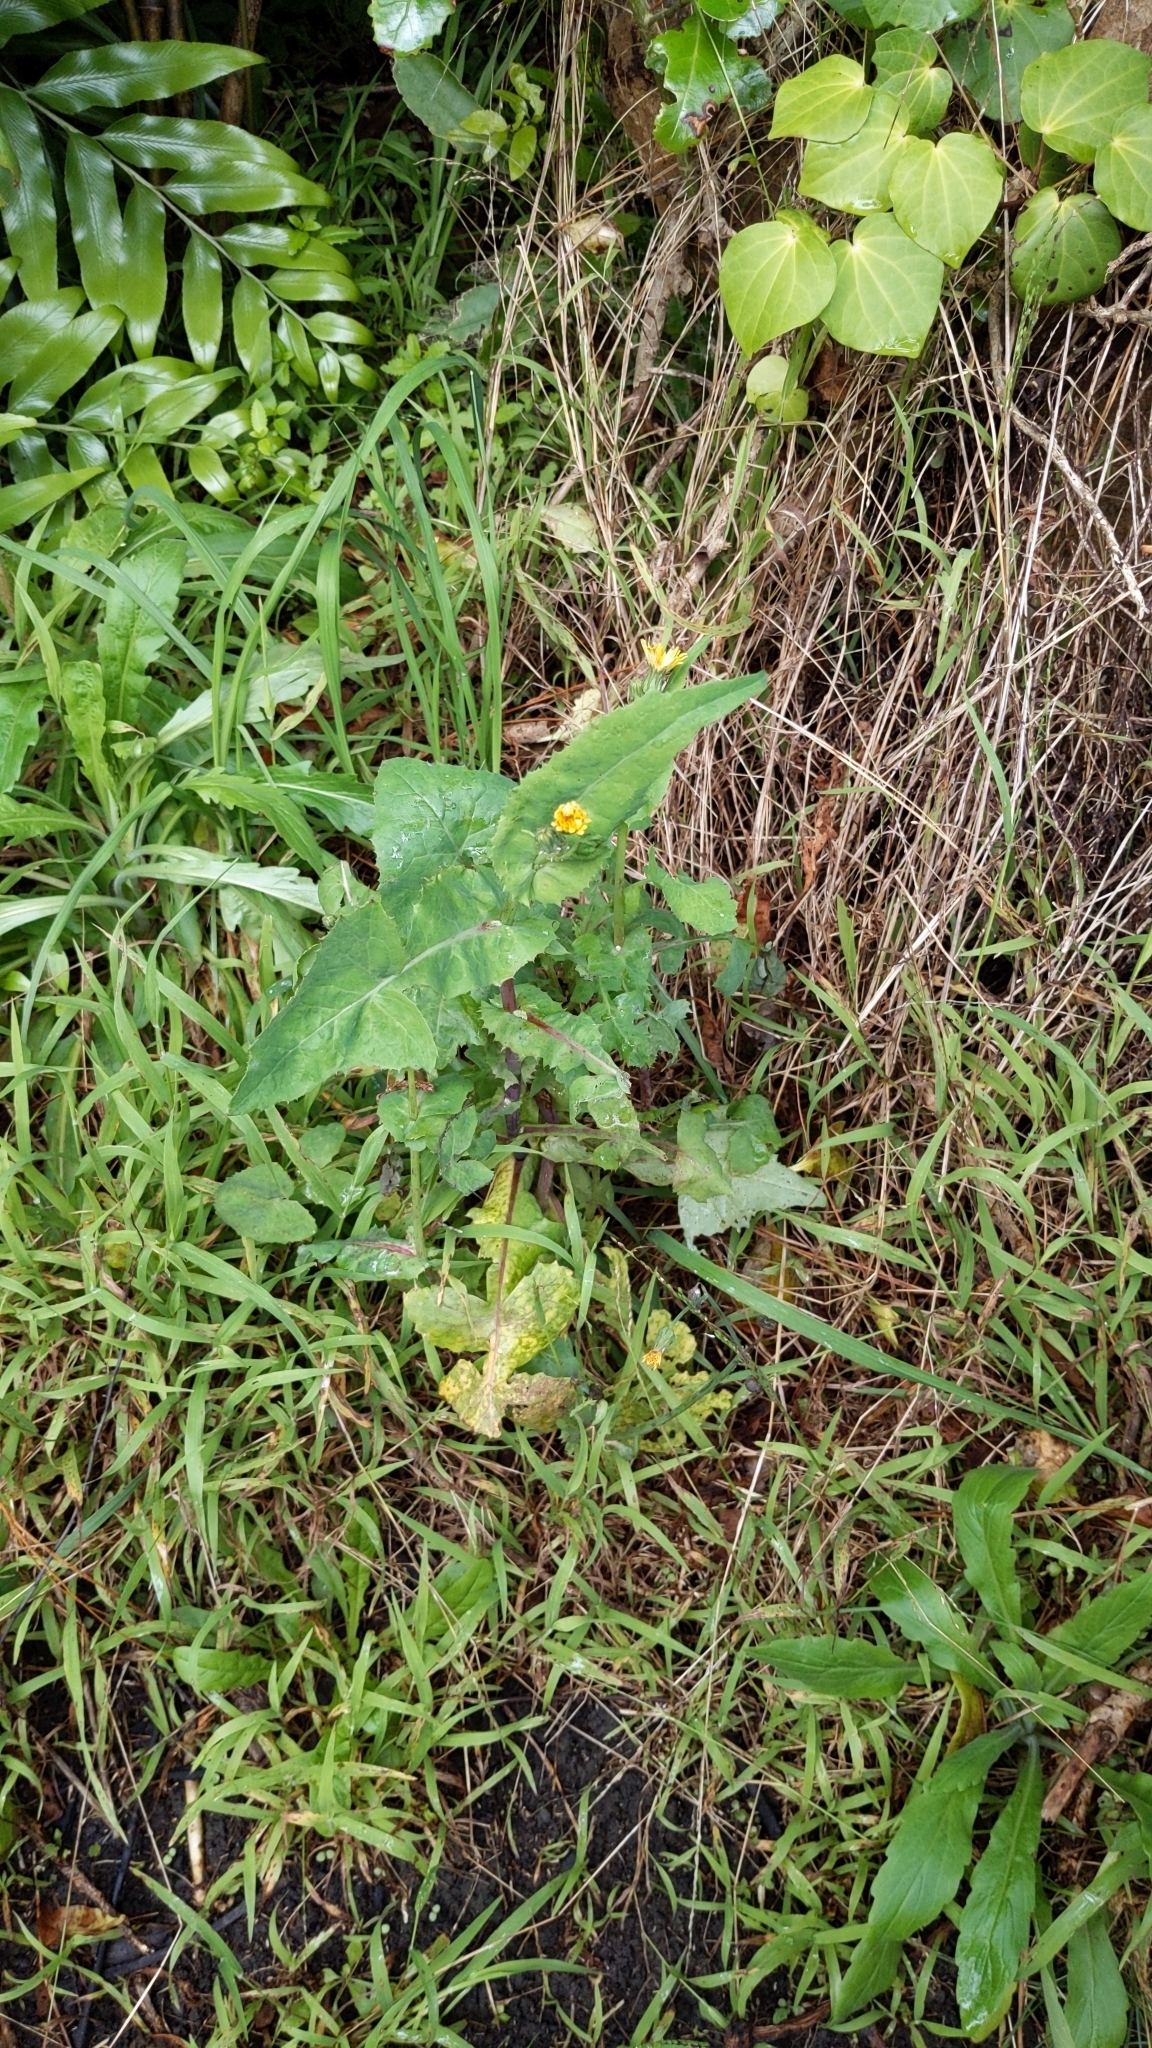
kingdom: Plantae
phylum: Tracheophyta
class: Magnoliopsida
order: Asterales
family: Asteraceae
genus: Sonchus
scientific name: Sonchus oleraceus
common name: Common sowthistle
